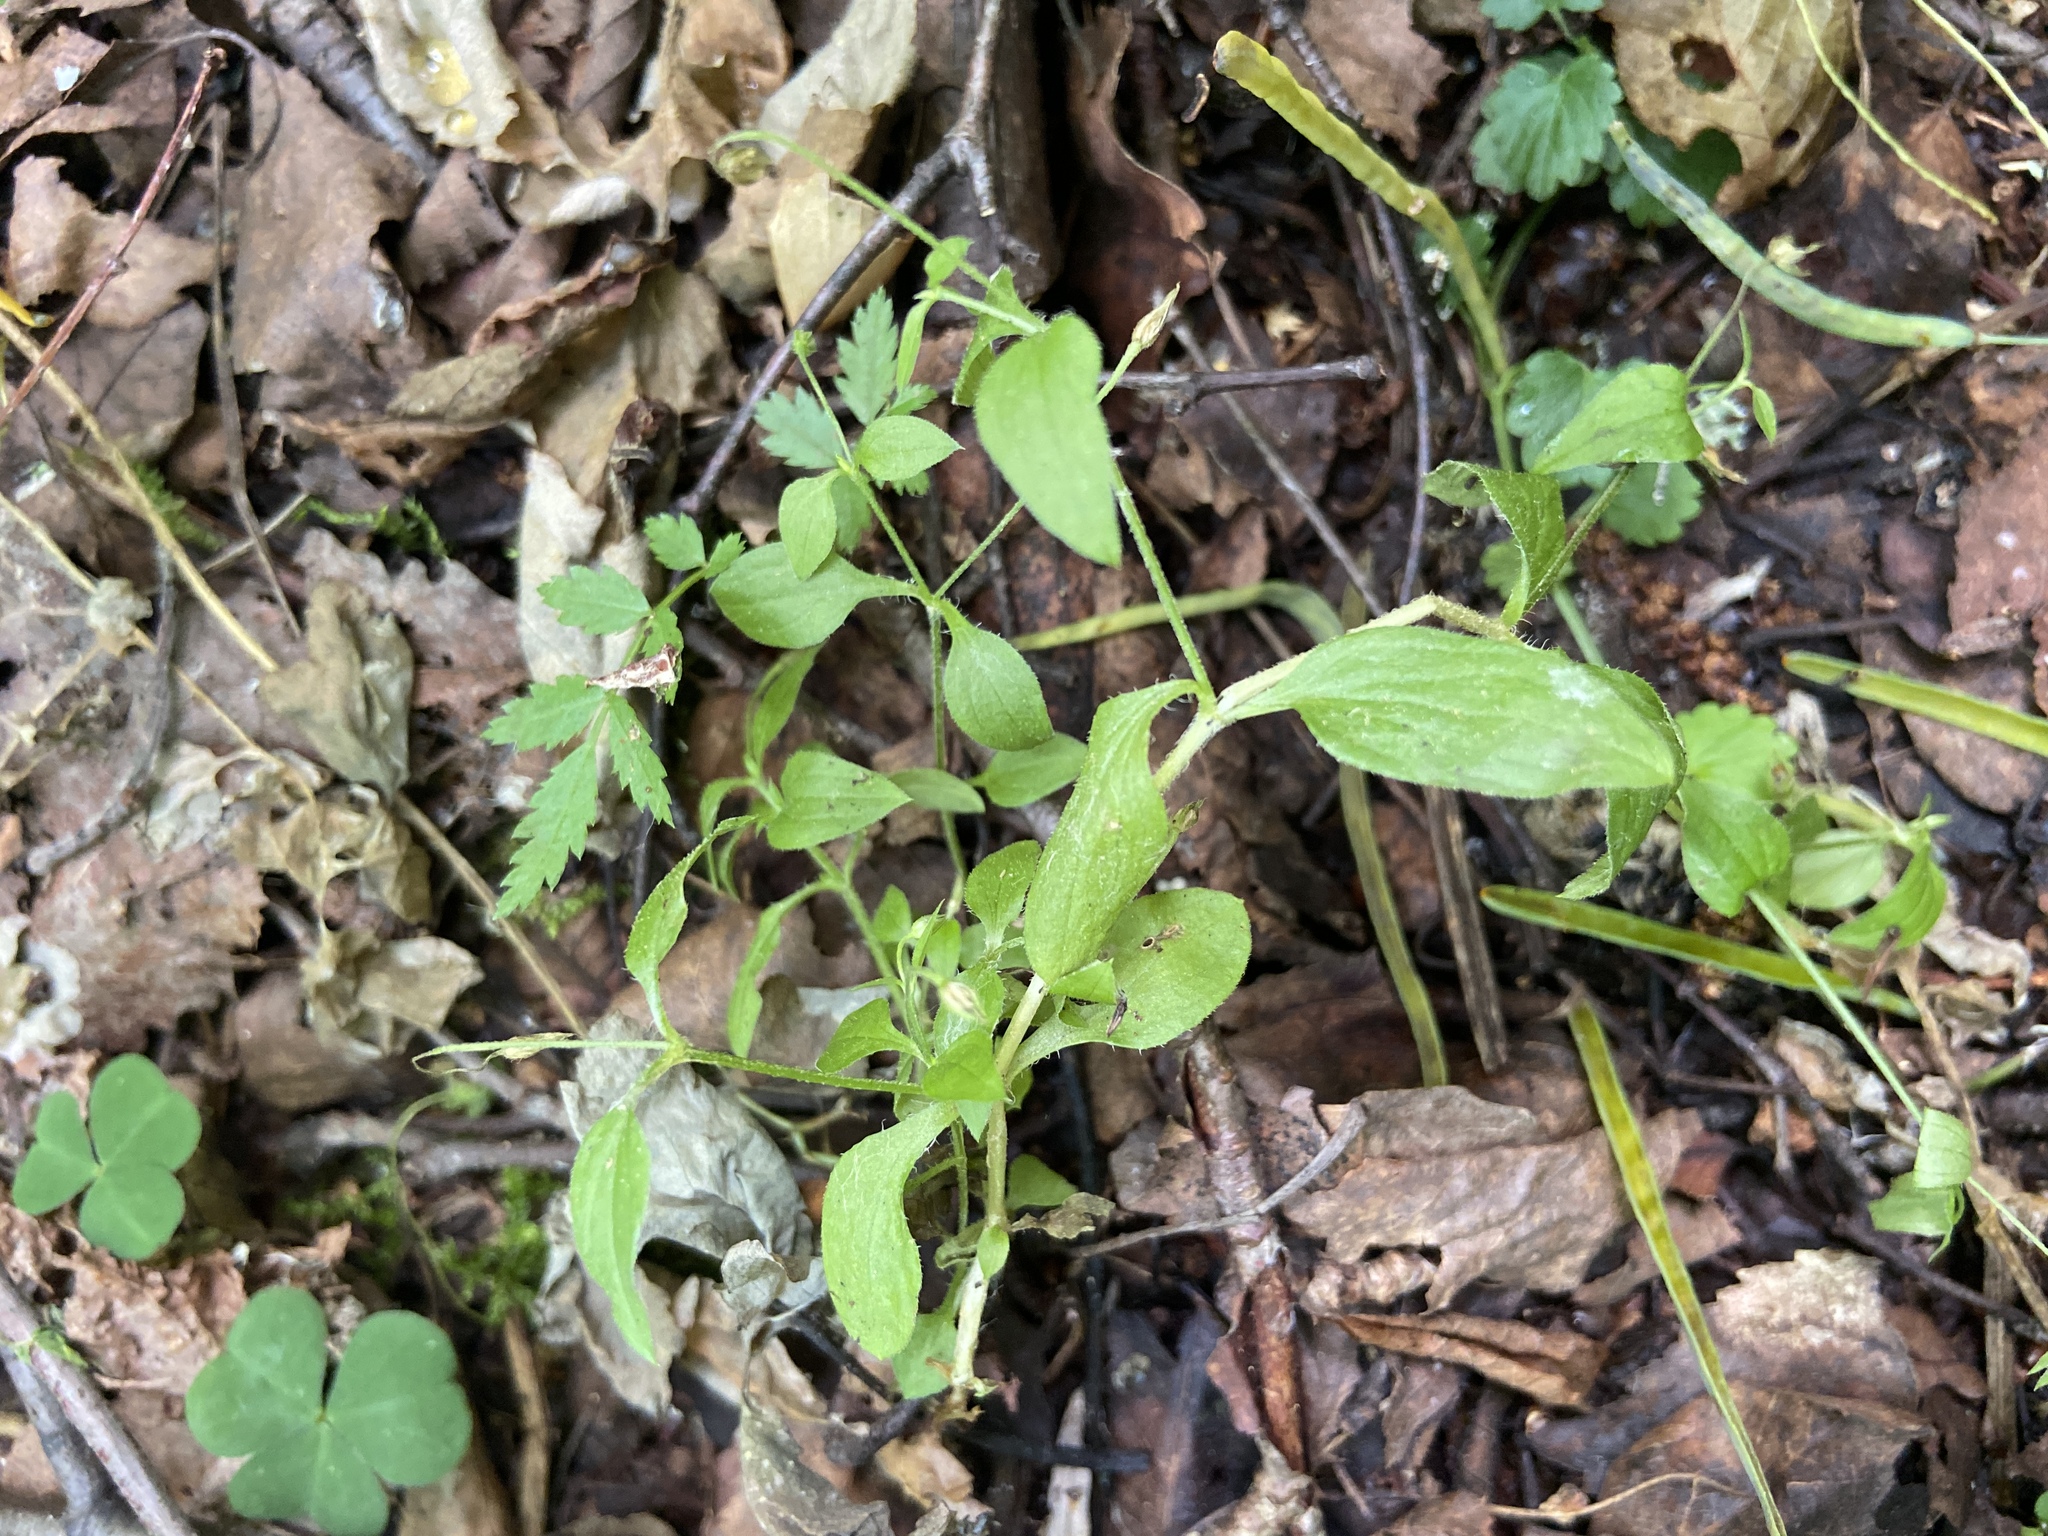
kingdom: Plantae
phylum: Tracheophyta
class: Magnoliopsida
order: Caryophyllales
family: Caryophyllaceae
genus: Moehringia
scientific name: Moehringia trinervia
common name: Three-nerved sandwort
